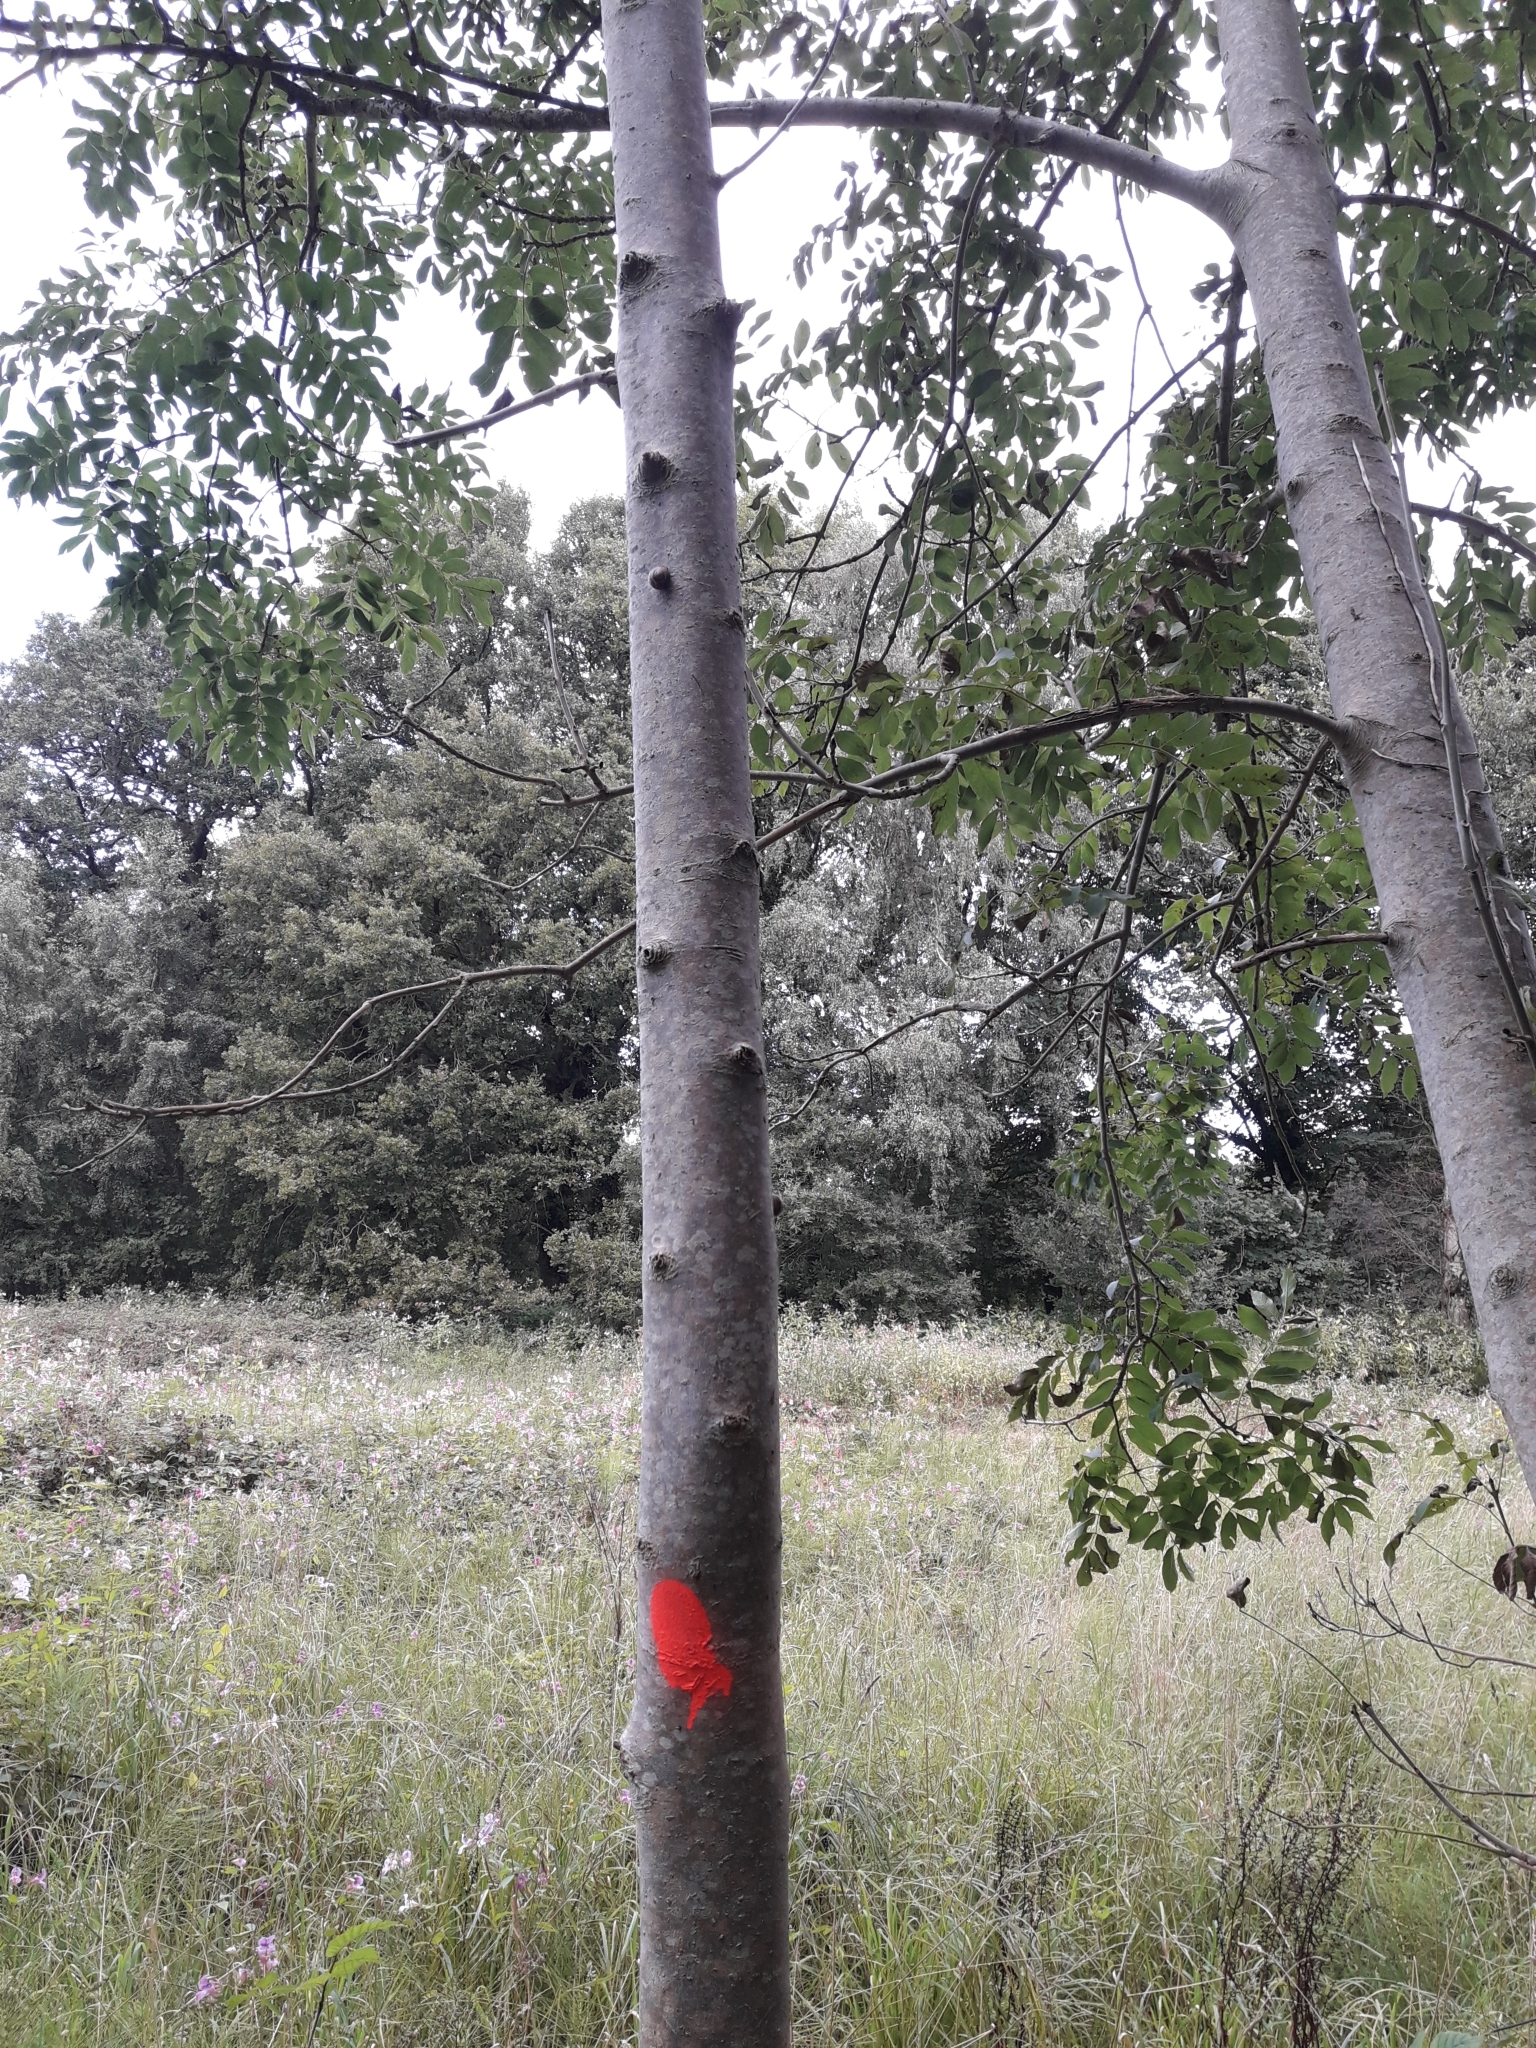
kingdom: Plantae
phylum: Tracheophyta
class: Magnoliopsida
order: Lamiales
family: Oleaceae
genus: Fraxinus
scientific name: Fraxinus excelsior
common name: European ash
